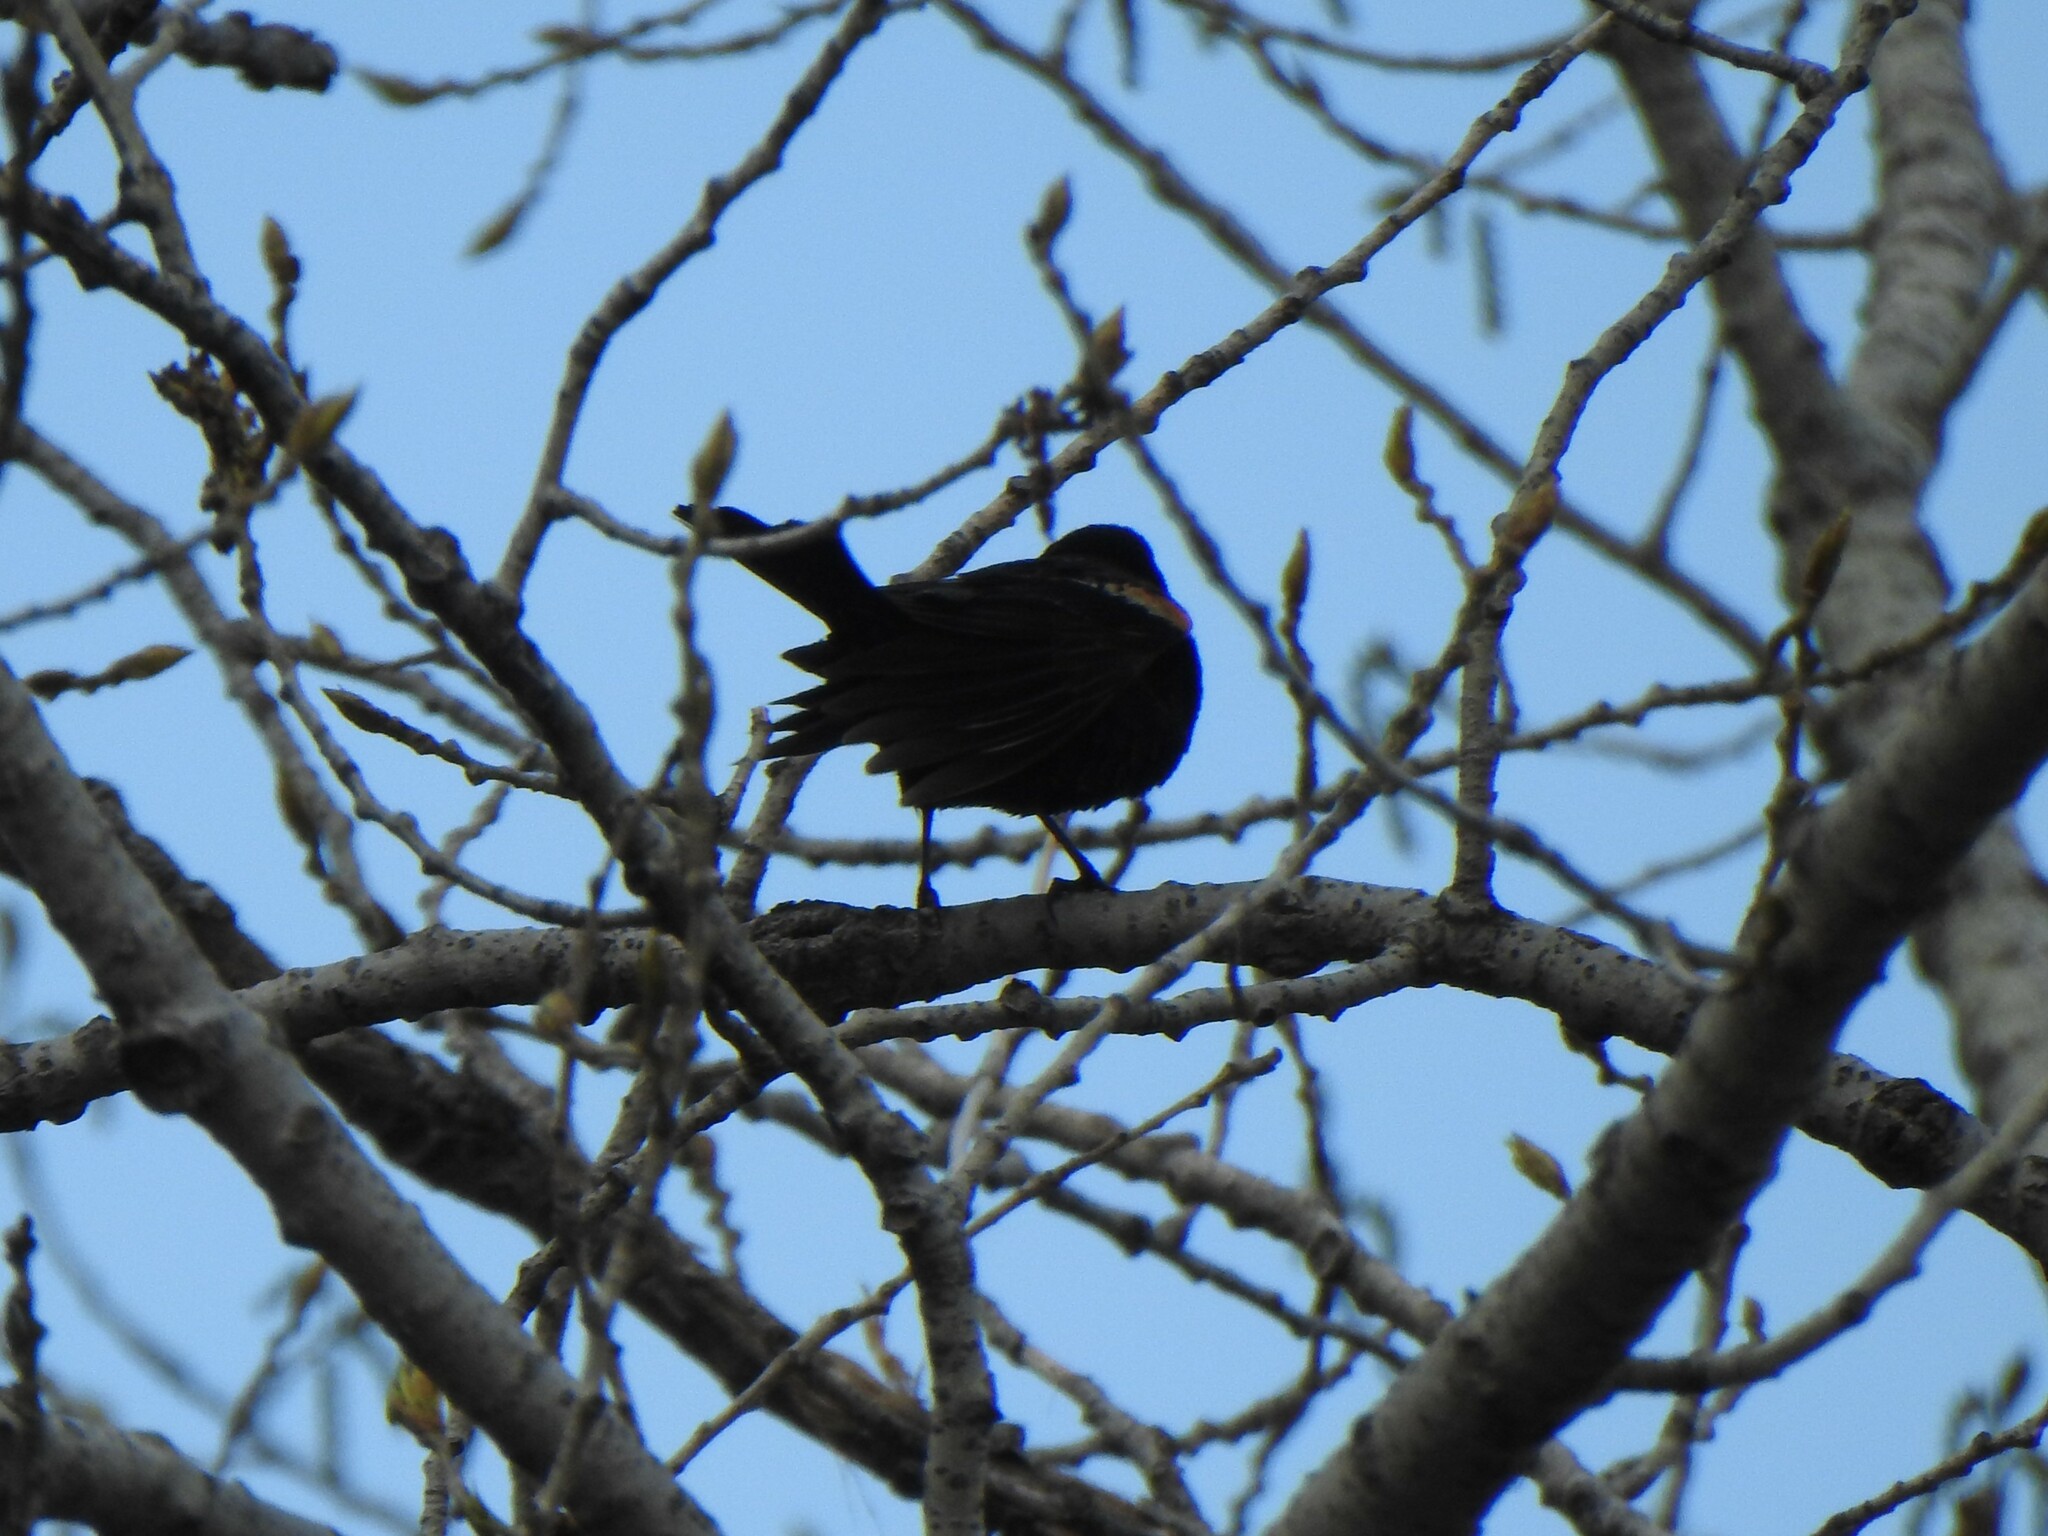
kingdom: Animalia
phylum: Chordata
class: Aves
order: Passeriformes
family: Icteridae
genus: Agelaius
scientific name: Agelaius phoeniceus
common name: Red-winged blackbird
